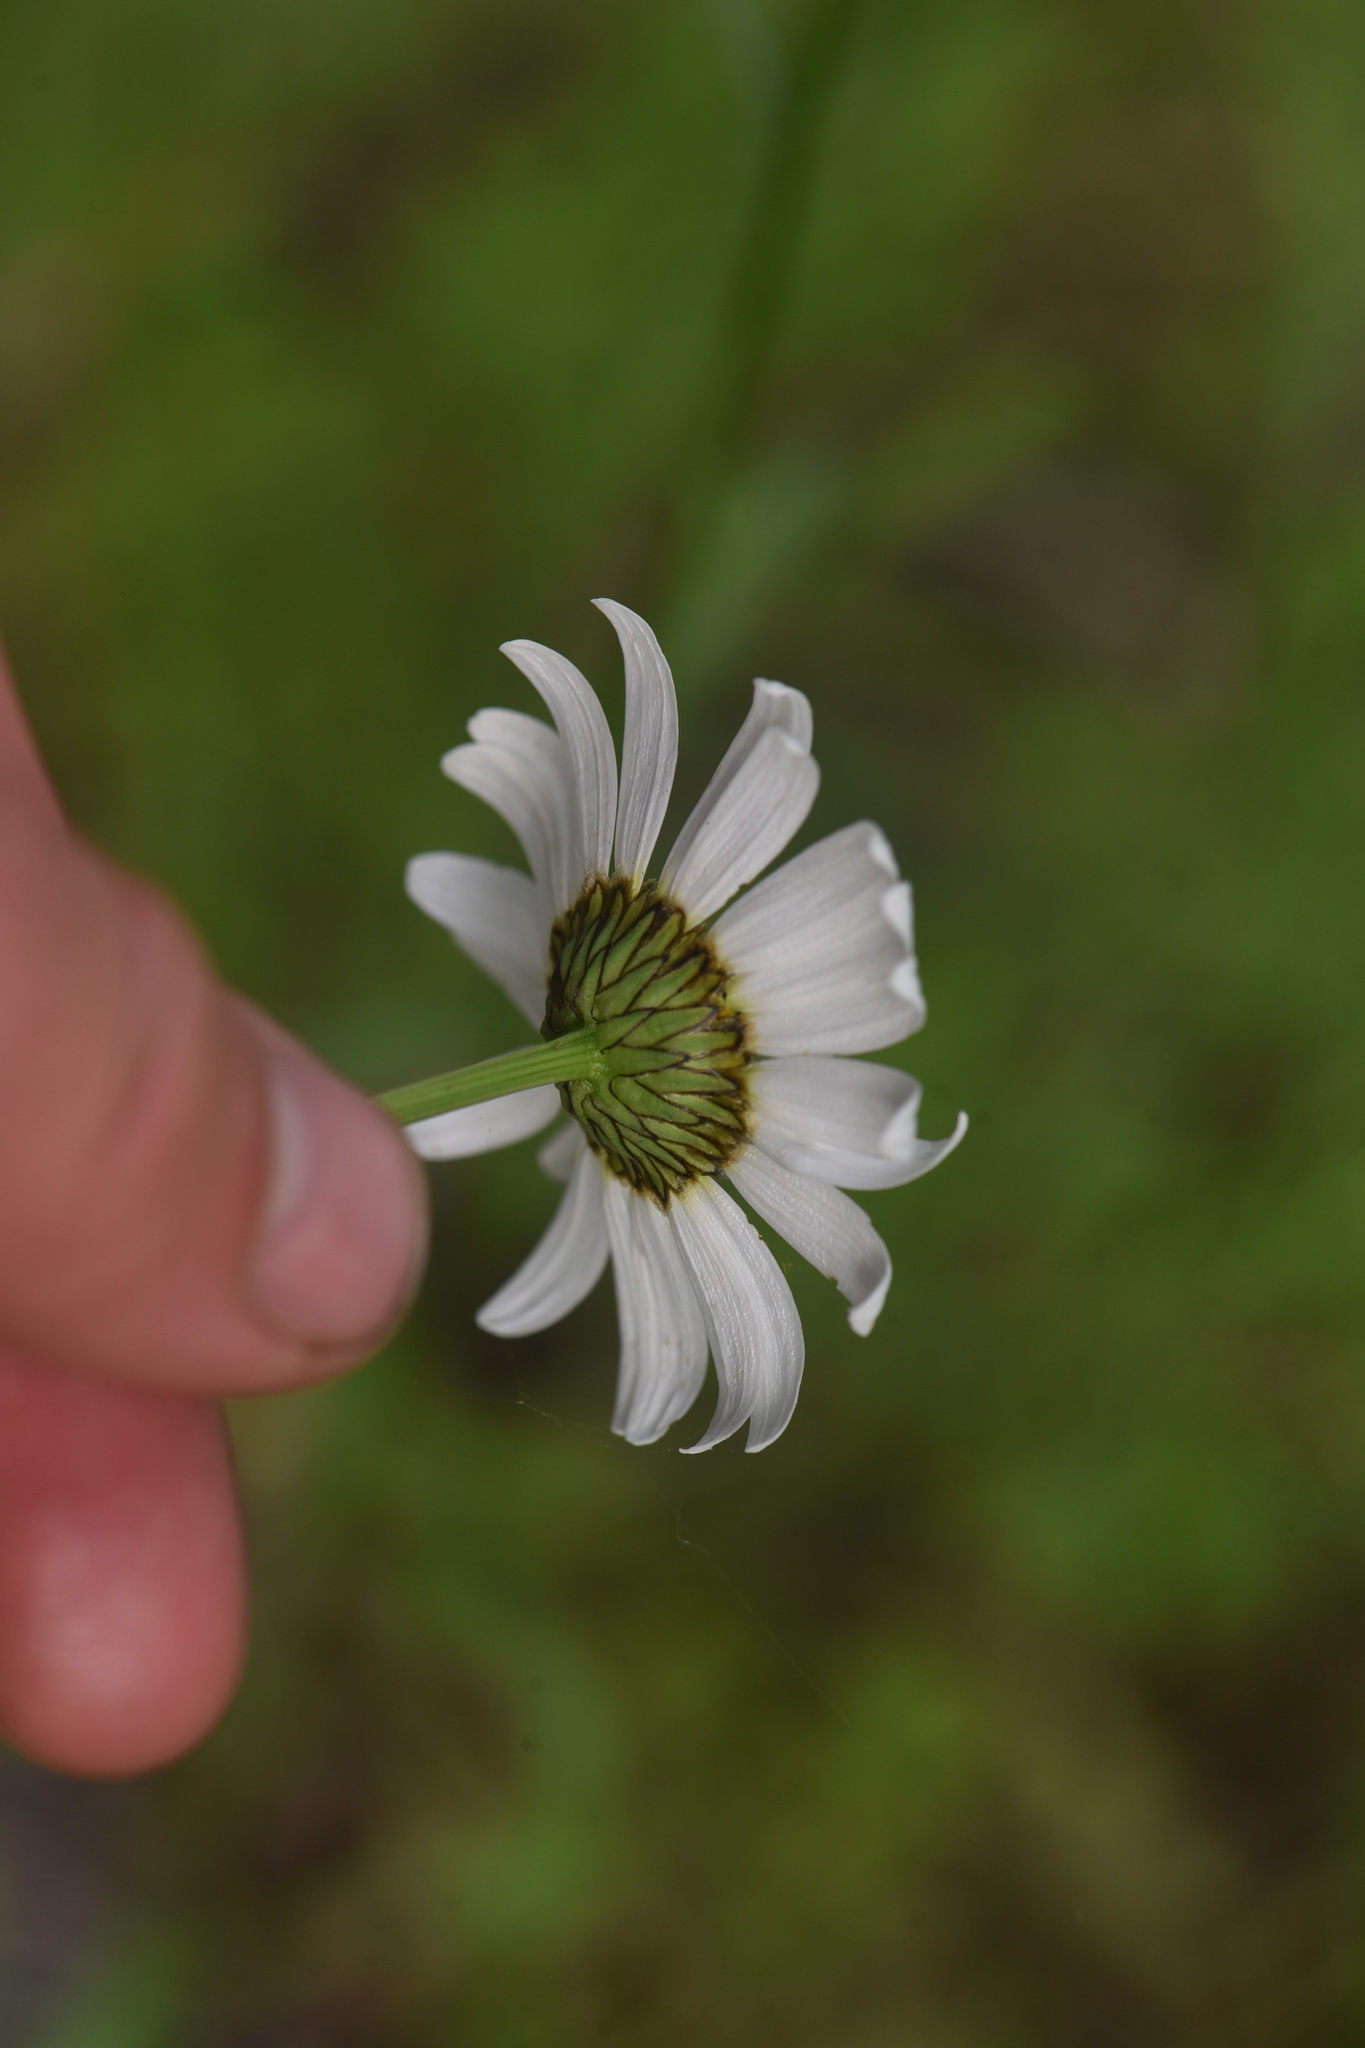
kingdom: Plantae
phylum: Tracheophyta
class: Magnoliopsida
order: Asterales
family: Asteraceae
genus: Leucanthemum
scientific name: Leucanthemum vulgare
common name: Oxeye daisy
